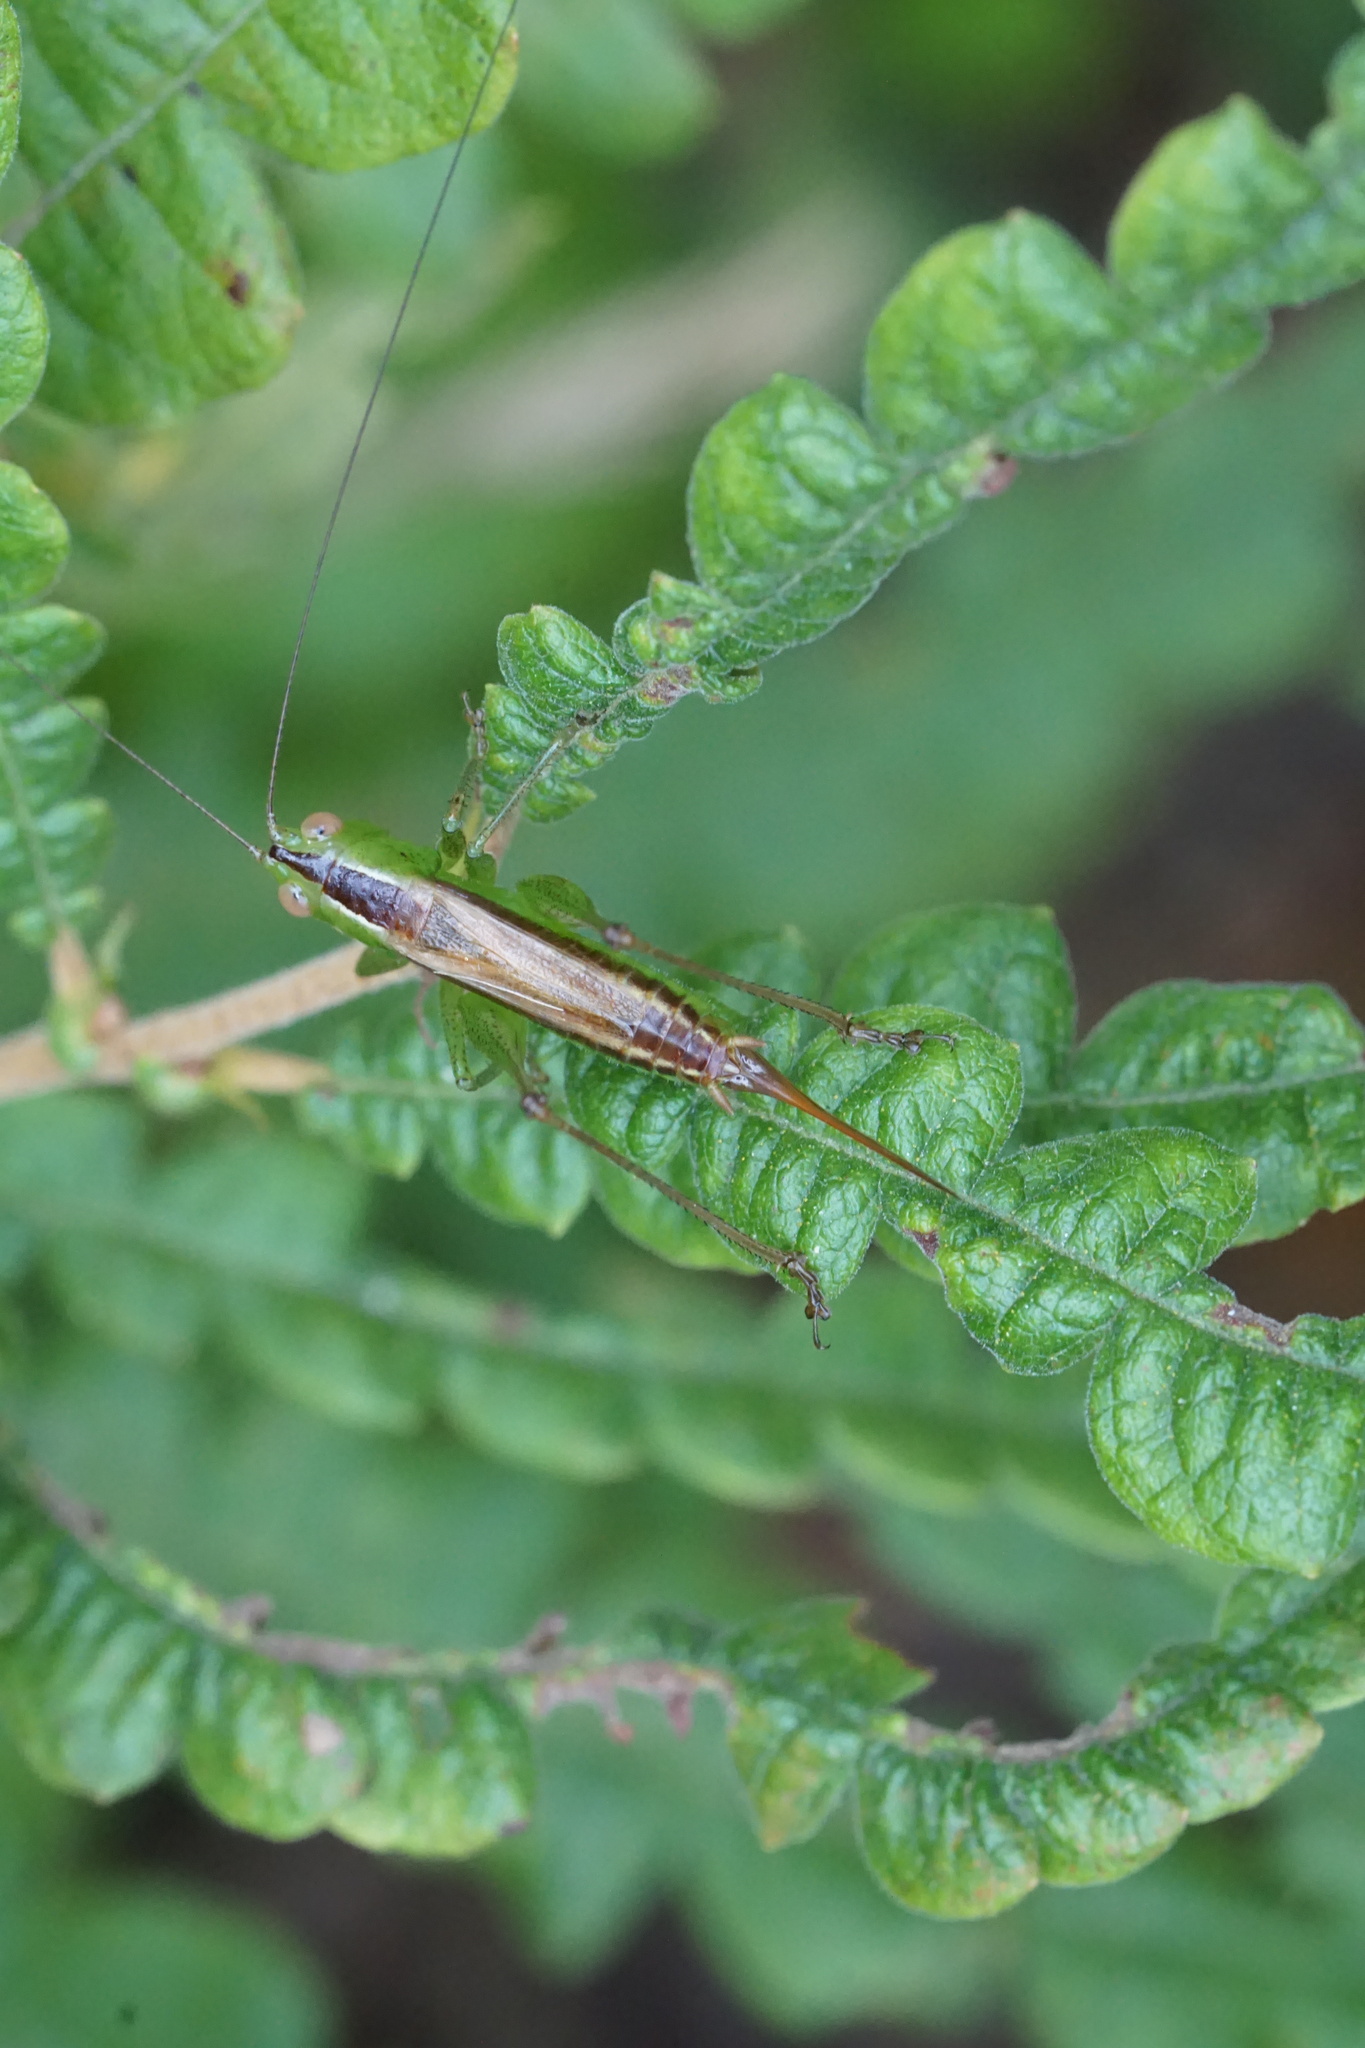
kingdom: Animalia
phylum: Arthropoda
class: Insecta
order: Orthoptera
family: Tettigoniidae
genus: Conocephalus
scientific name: Conocephalus brevipennis
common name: Short-winged meadow katydid
